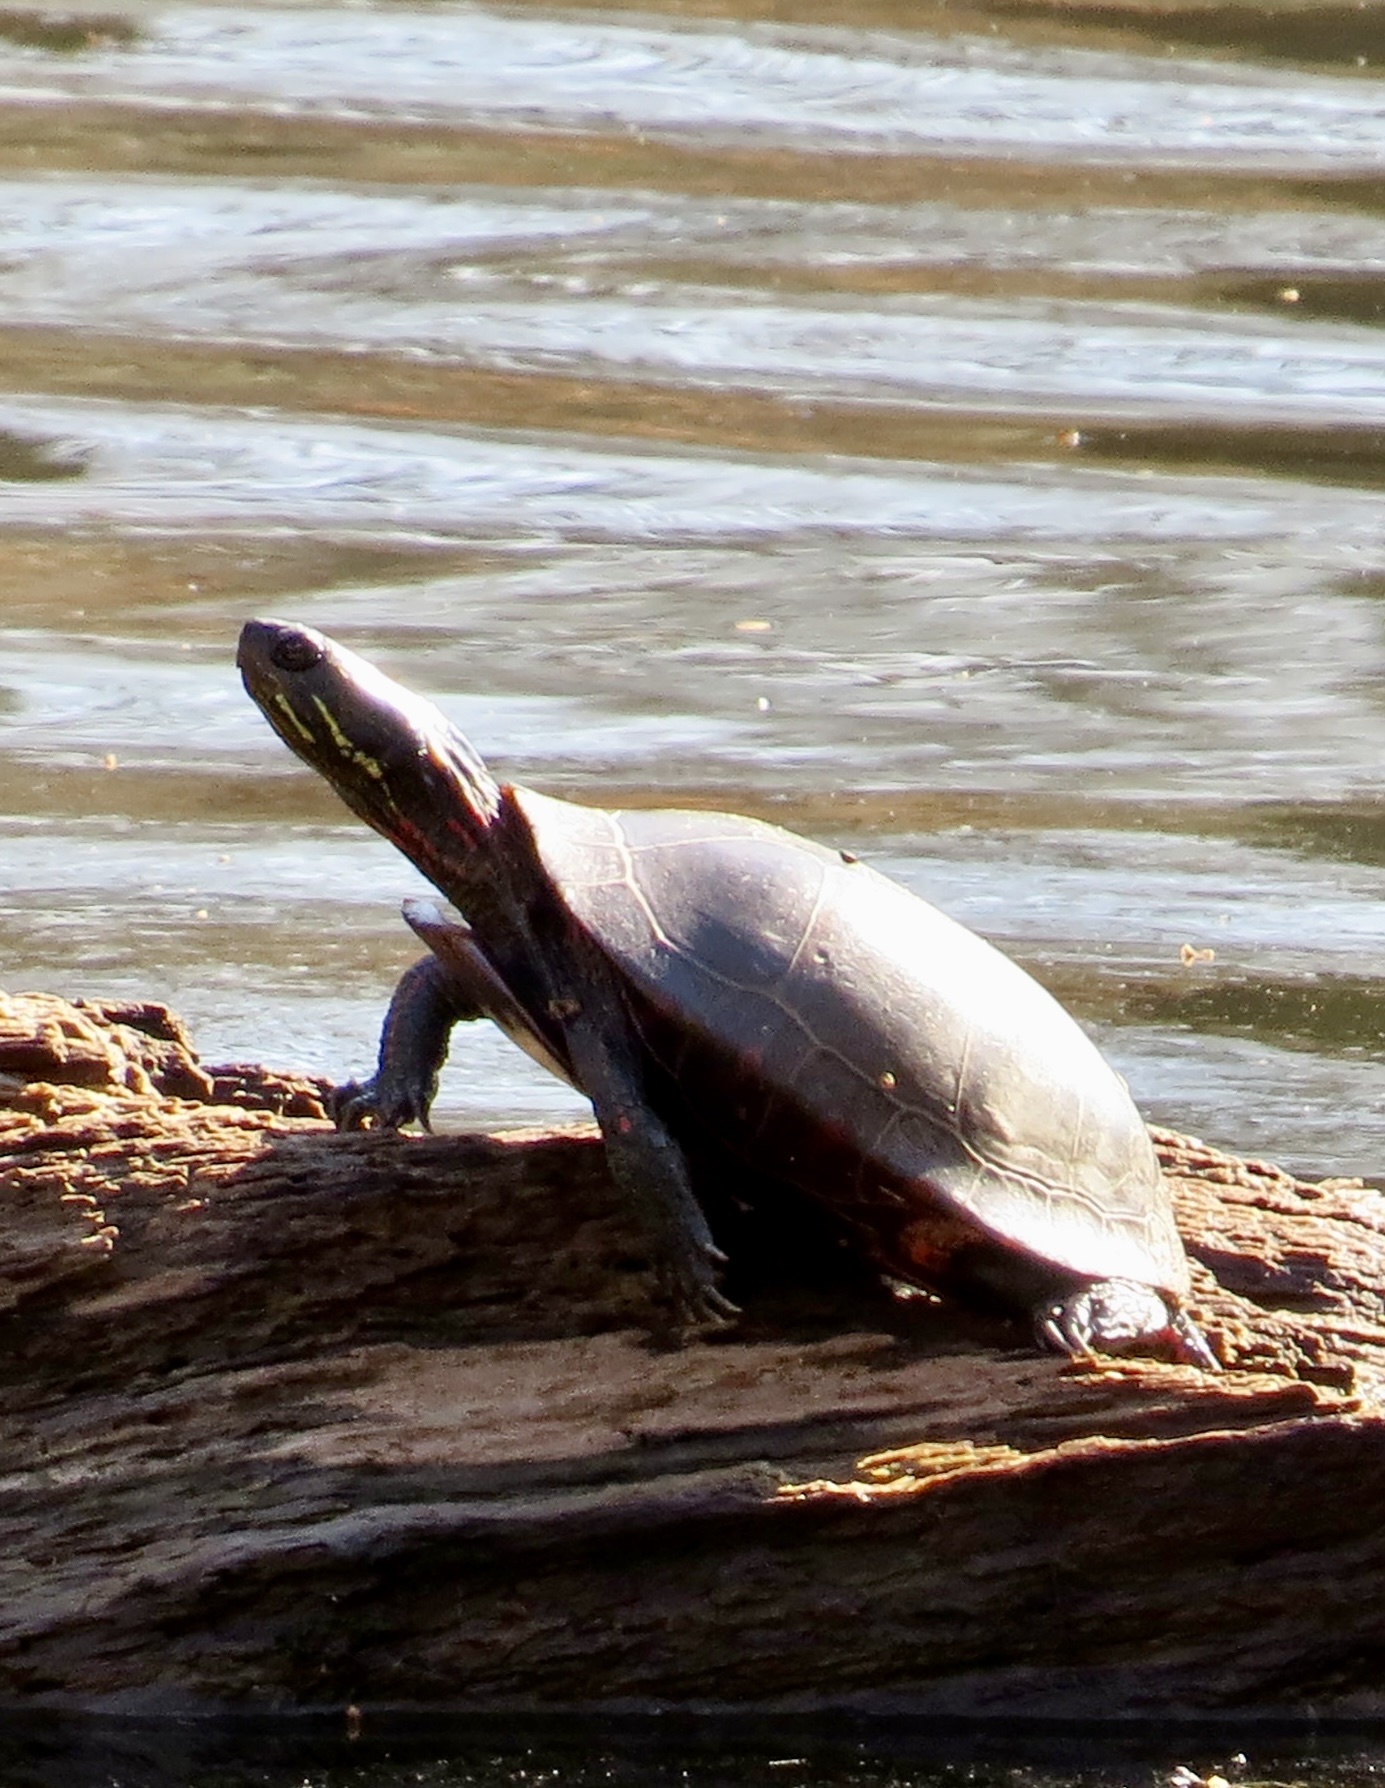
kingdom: Animalia
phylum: Chordata
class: Testudines
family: Emydidae
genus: Chrysemys
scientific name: Chrysemys picta
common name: Painted turtle
